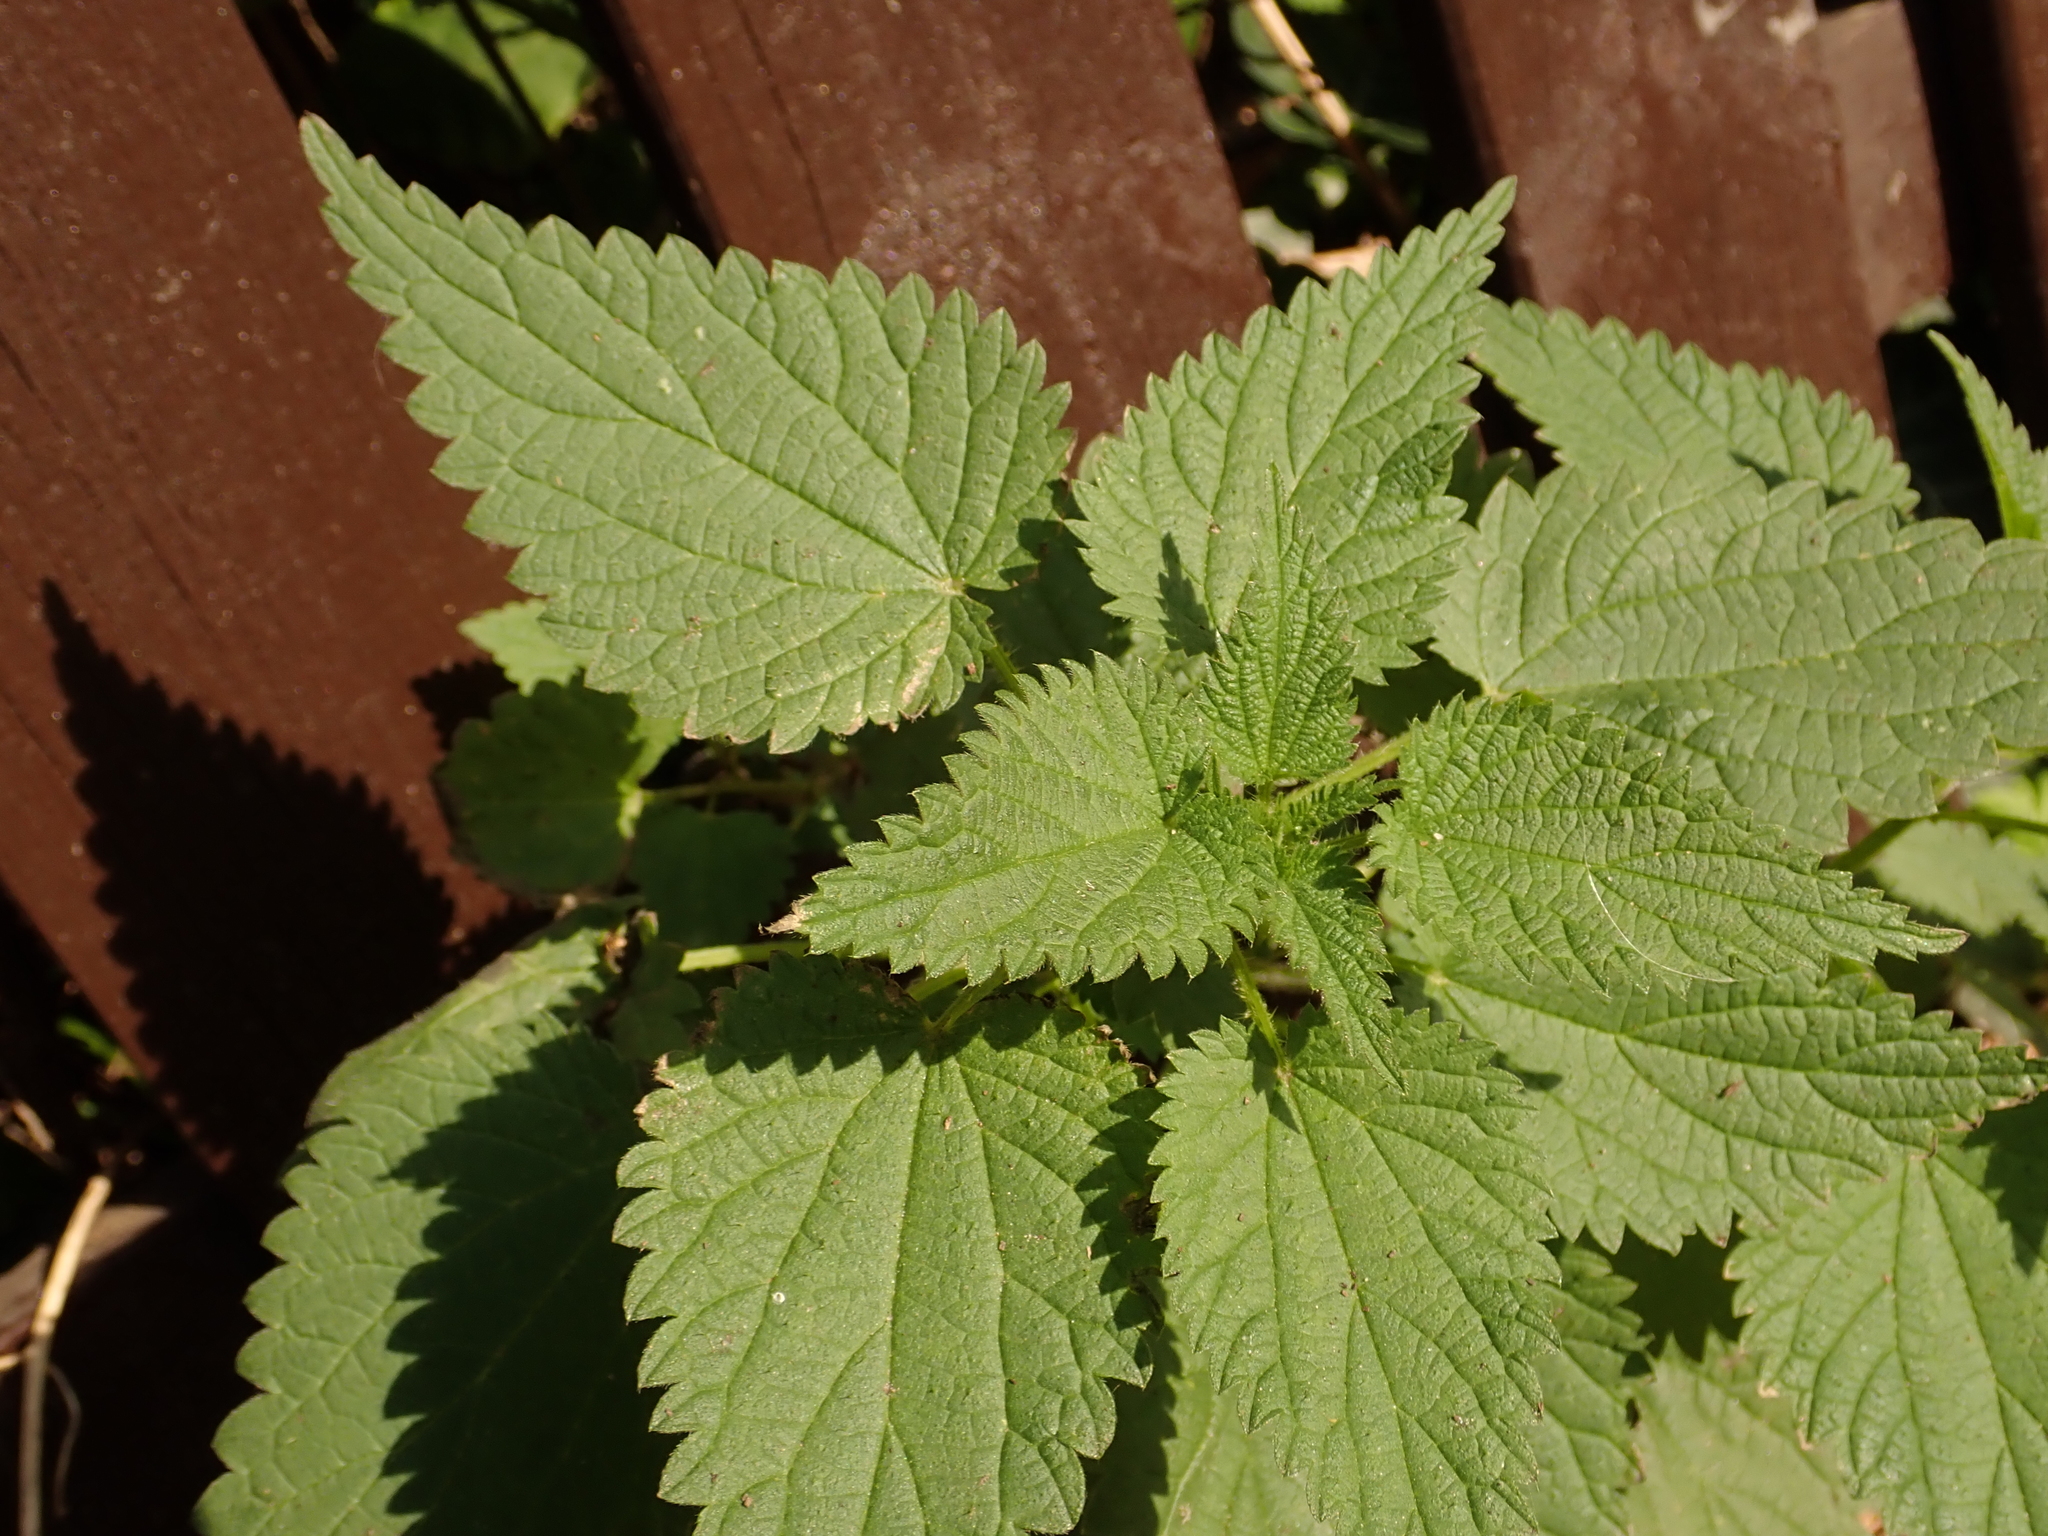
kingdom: Plantae
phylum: Tracheophyta
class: Magnoliopsida
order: Rosales
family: Urticaceae
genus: Urtica
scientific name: Urtica dioica
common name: Common nettle
